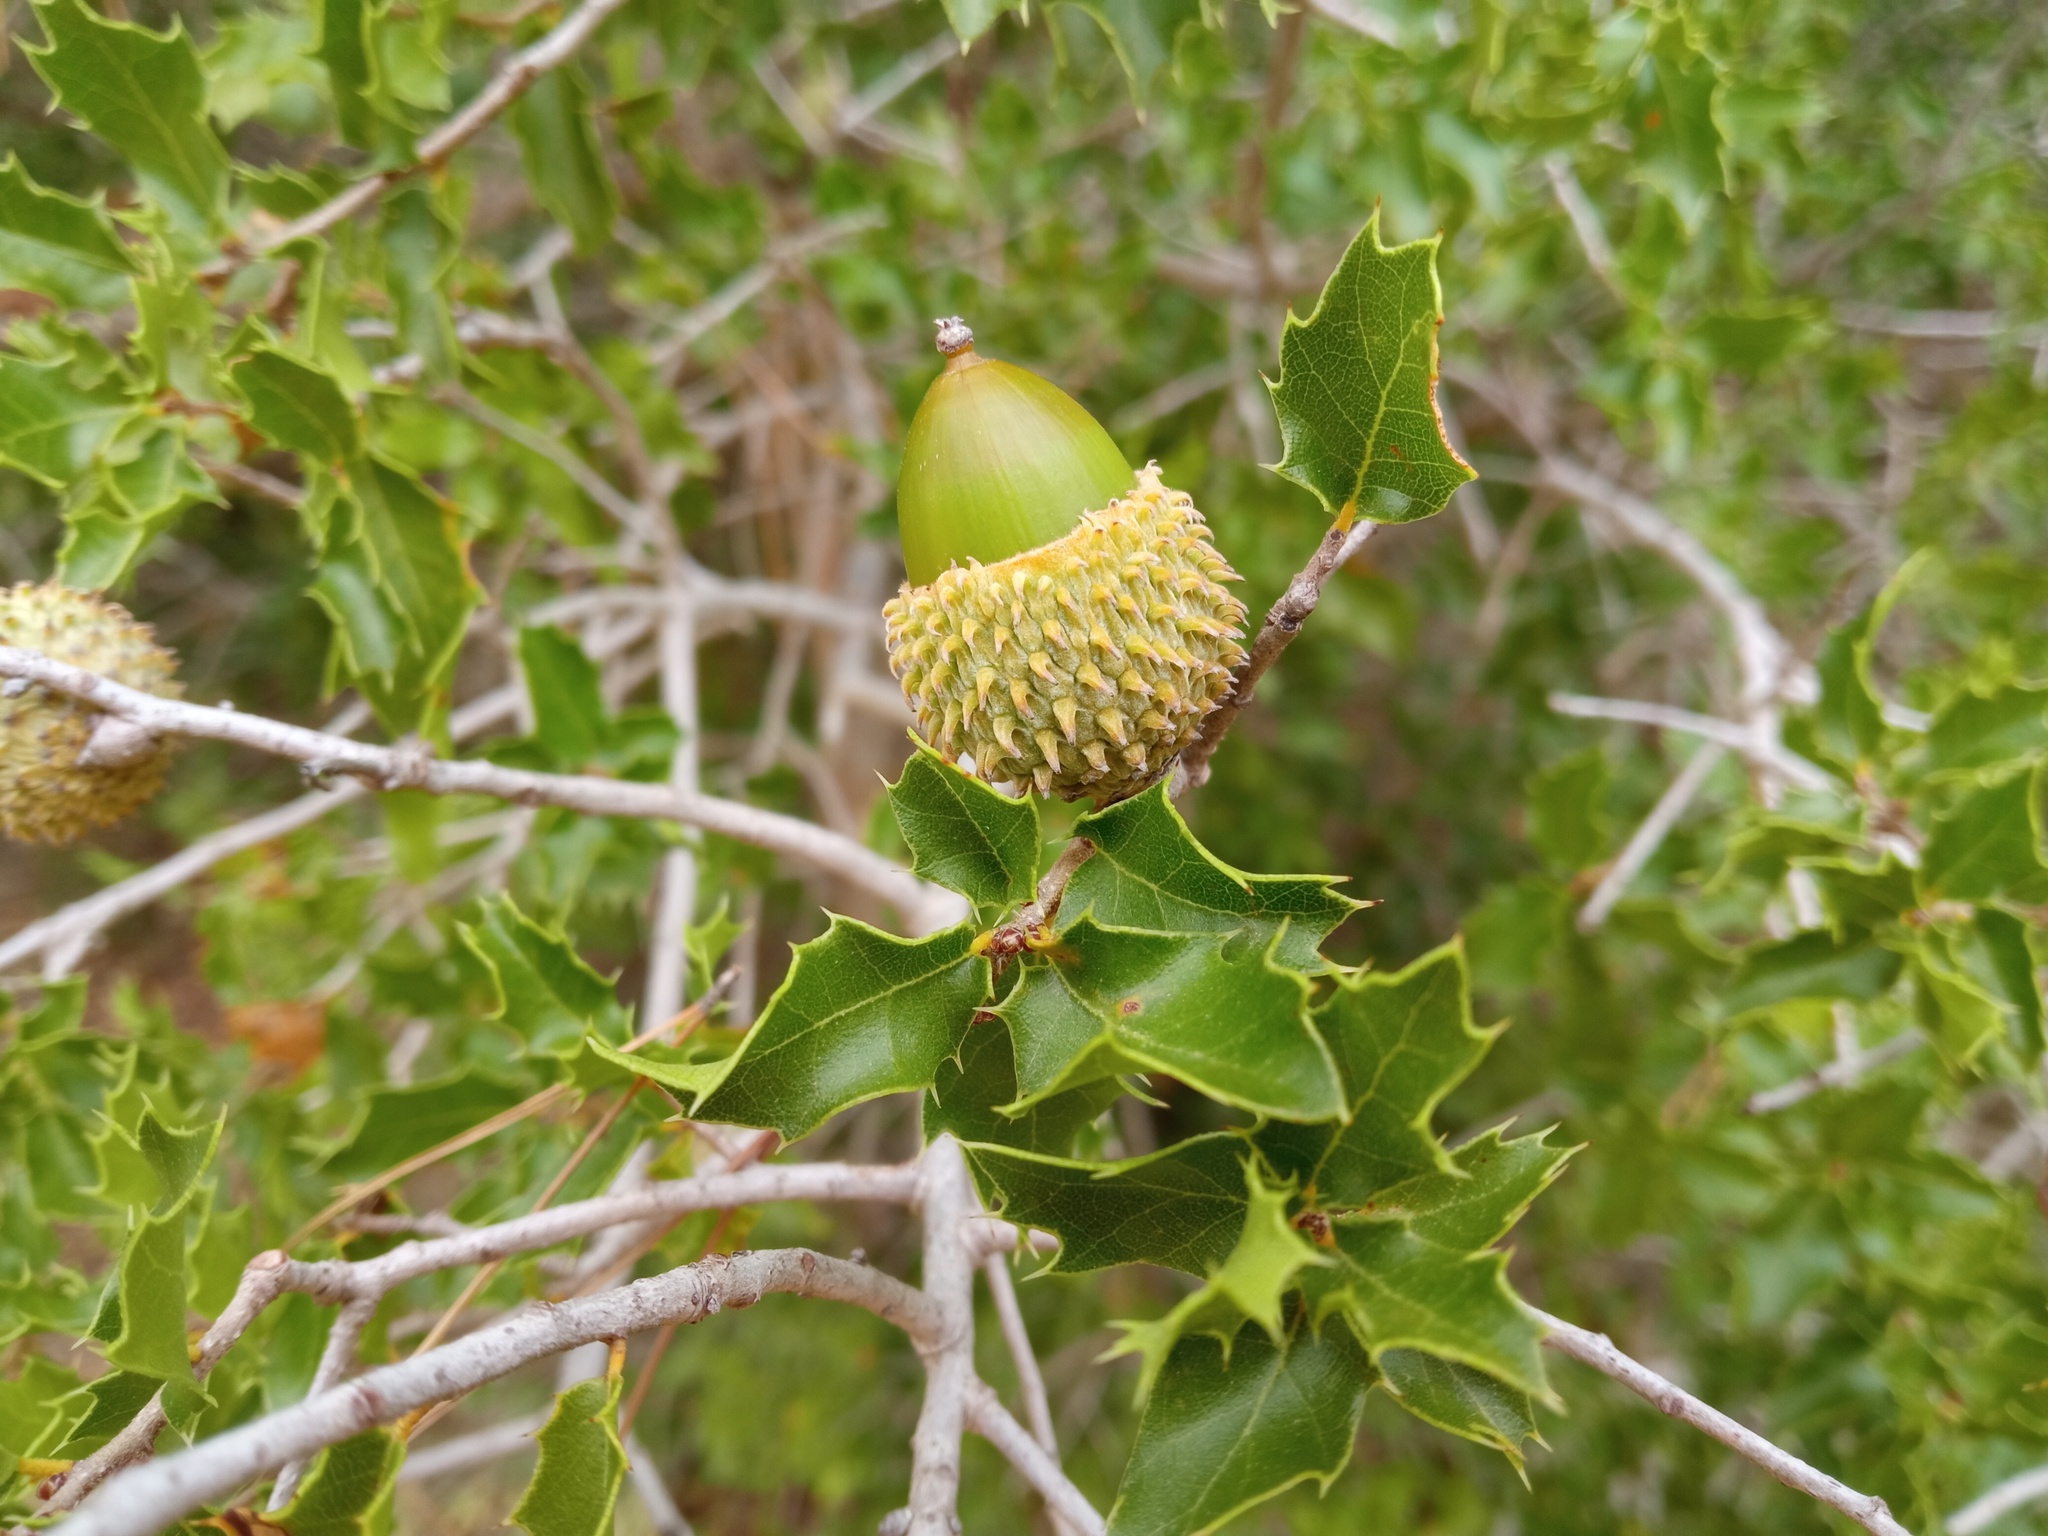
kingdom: Plantae
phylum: Tracheophyta
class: Magnoliopsida
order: Fagales
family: Fagaceae
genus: Quercus
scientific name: Quercus coccifera
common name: Kermes oak
